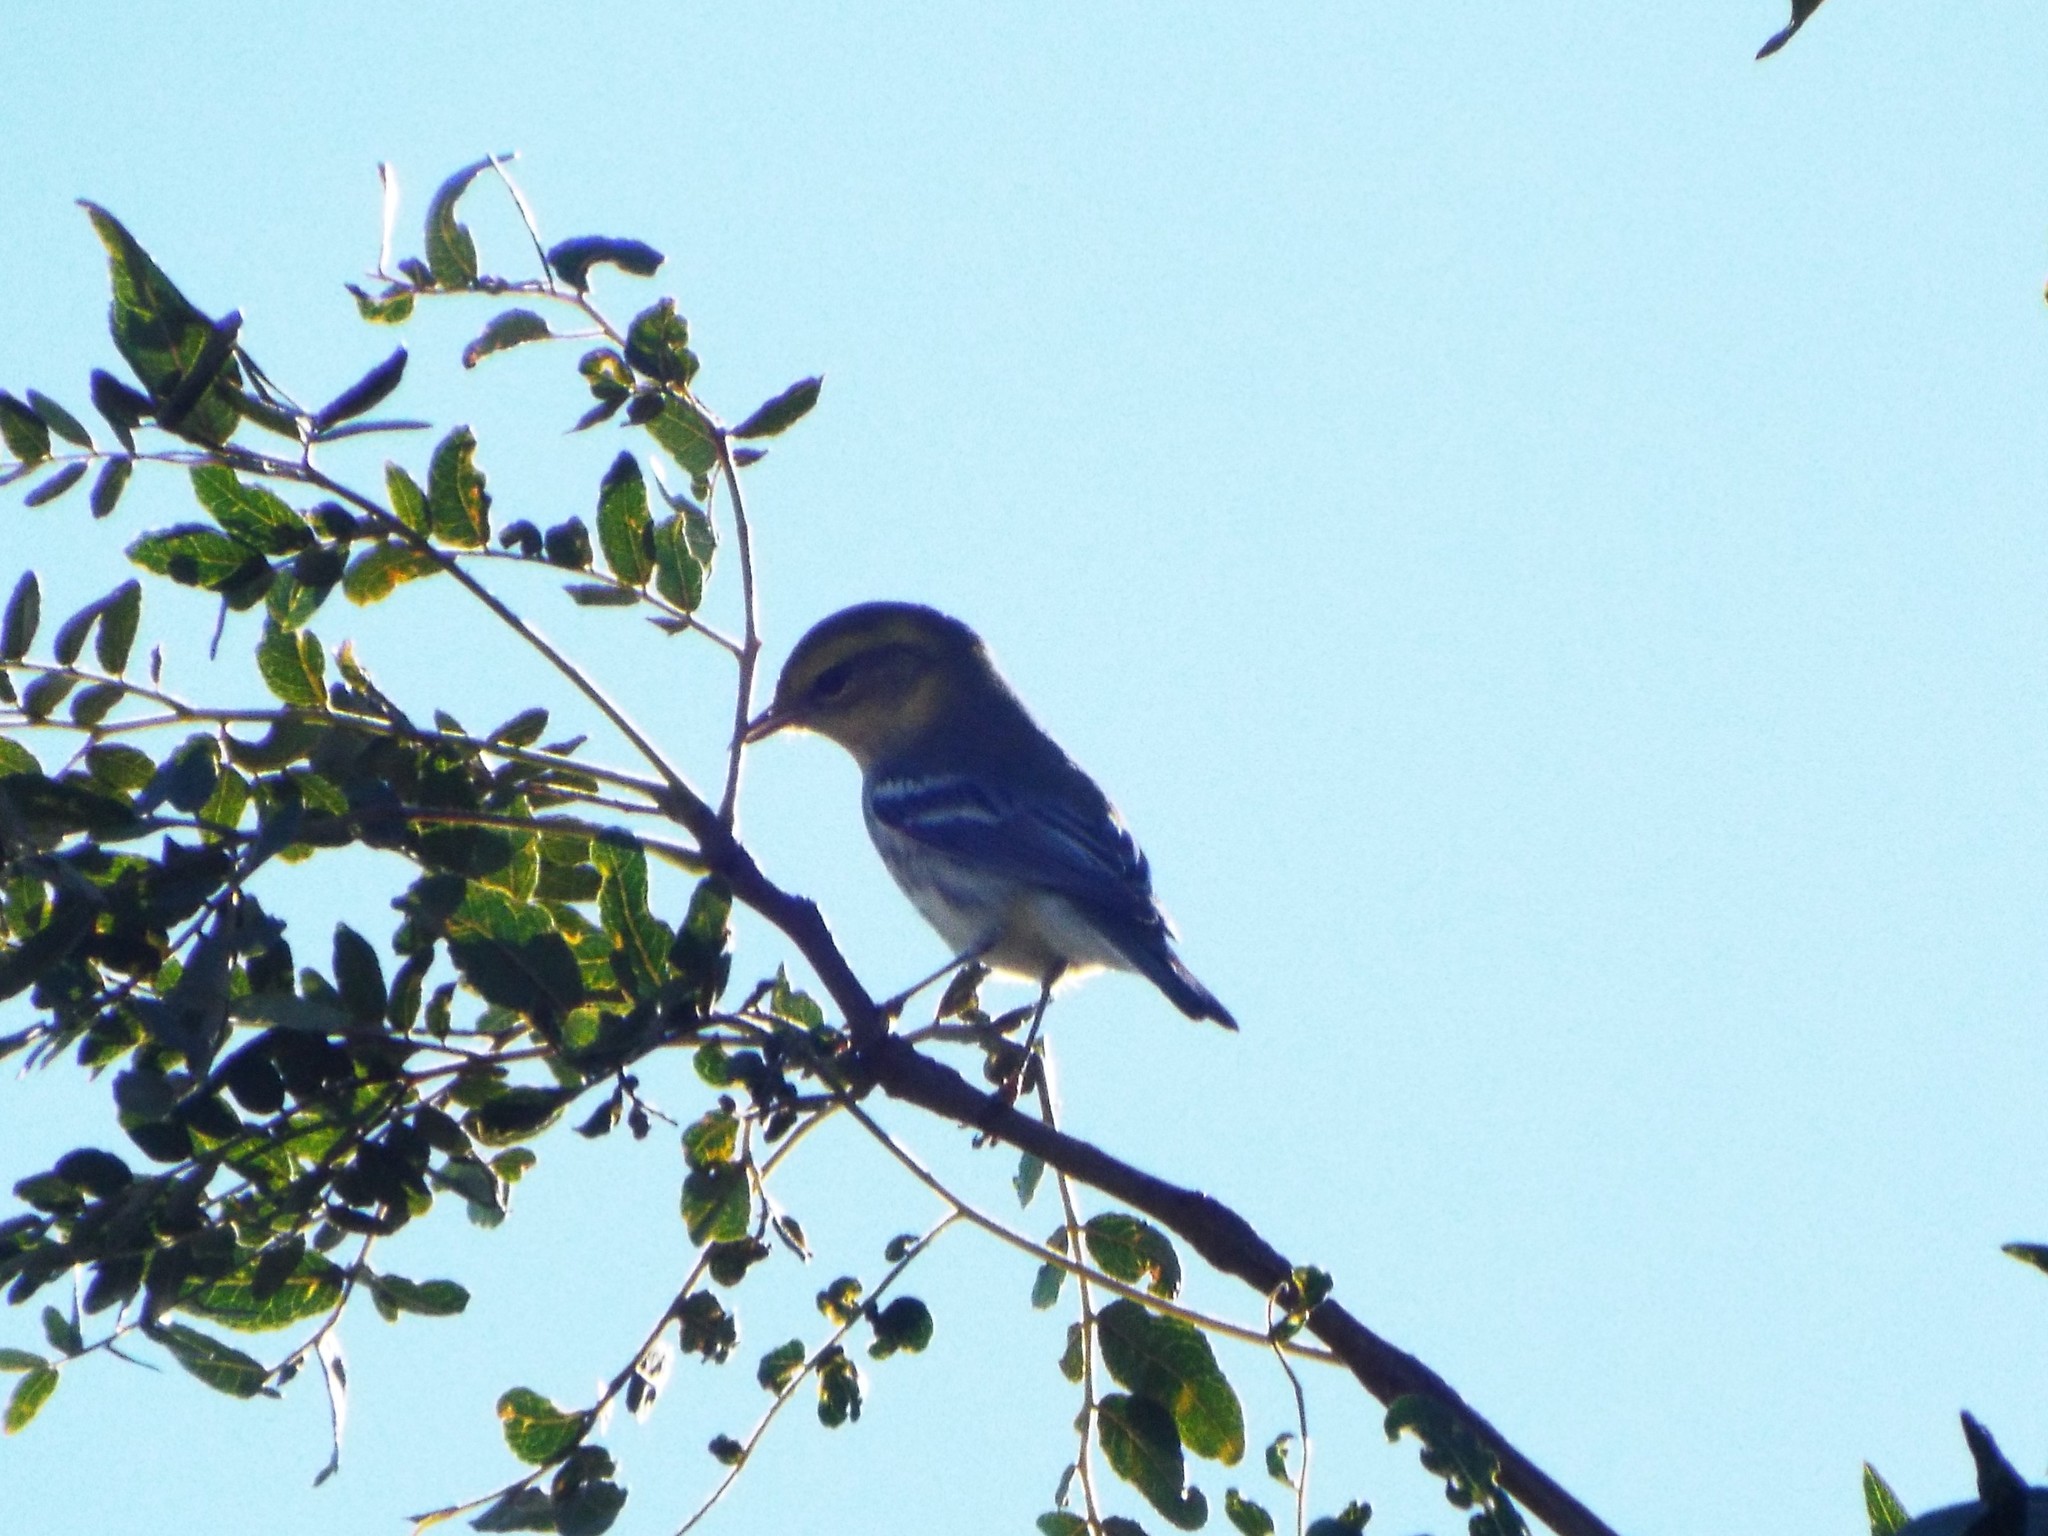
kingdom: Animalia
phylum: Chordata
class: Aves
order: Passeriformes
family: Parulidae
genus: Setophaga
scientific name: Setophaga virens
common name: Black-throated green warbler
